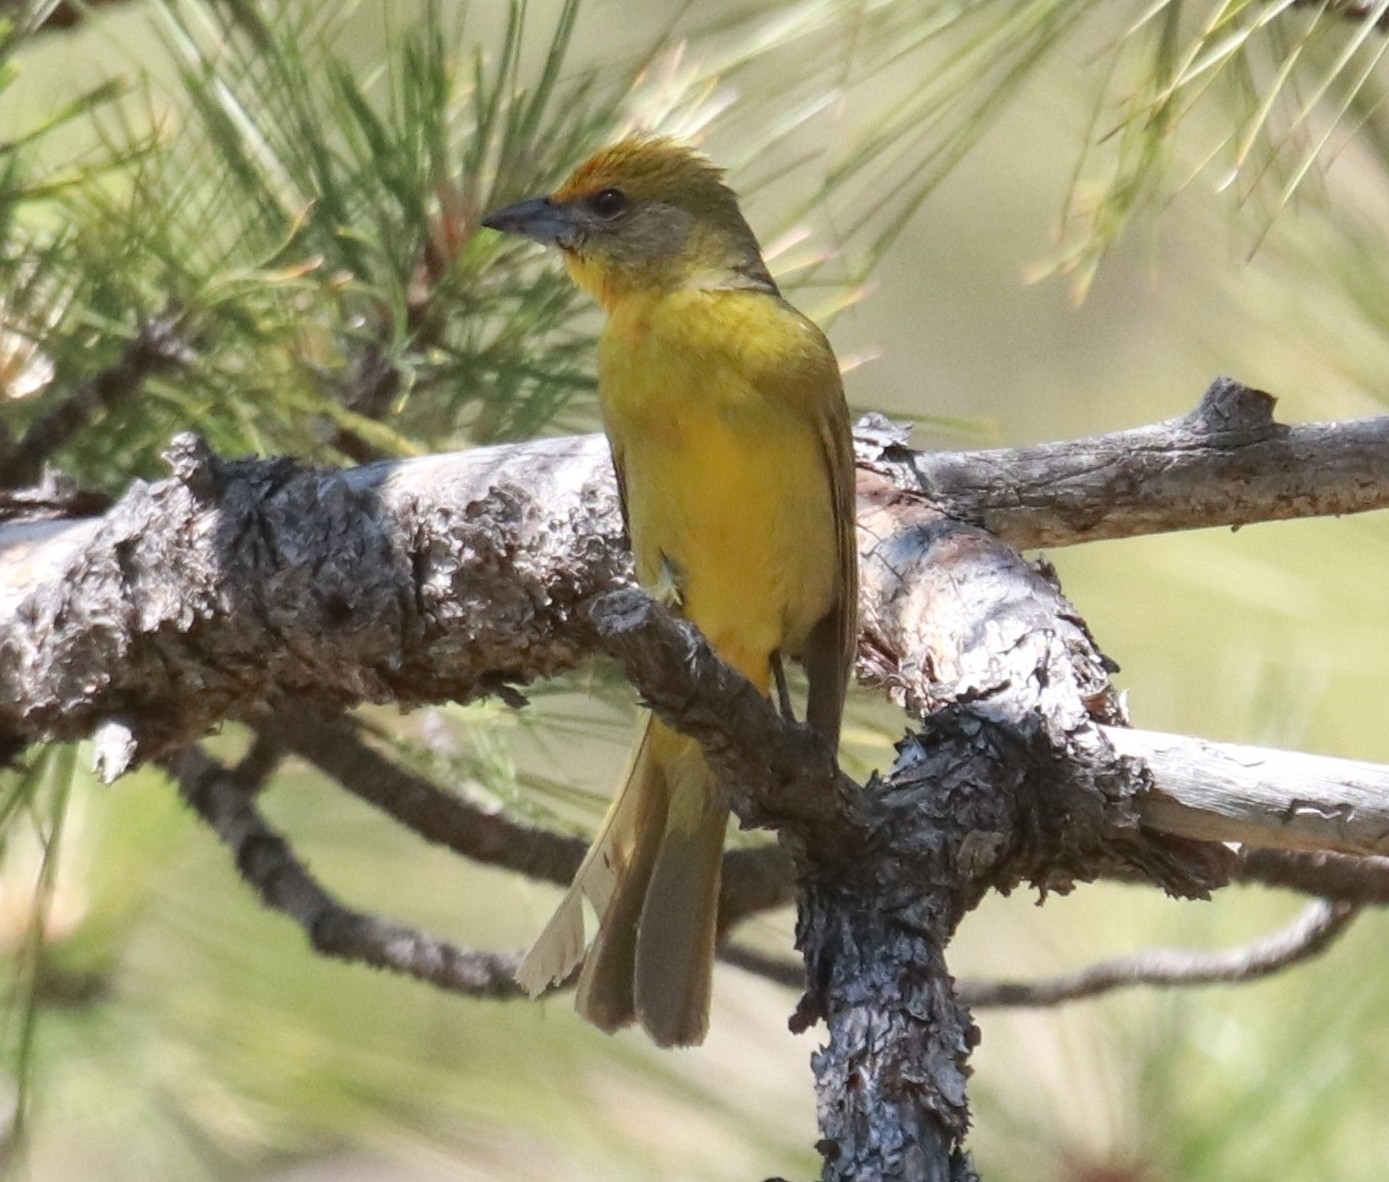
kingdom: Animalia
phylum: Chordata
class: Aves
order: Passeriformes
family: Cardinalidae
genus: Piranga
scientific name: Piranga flava
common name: Red tanager
